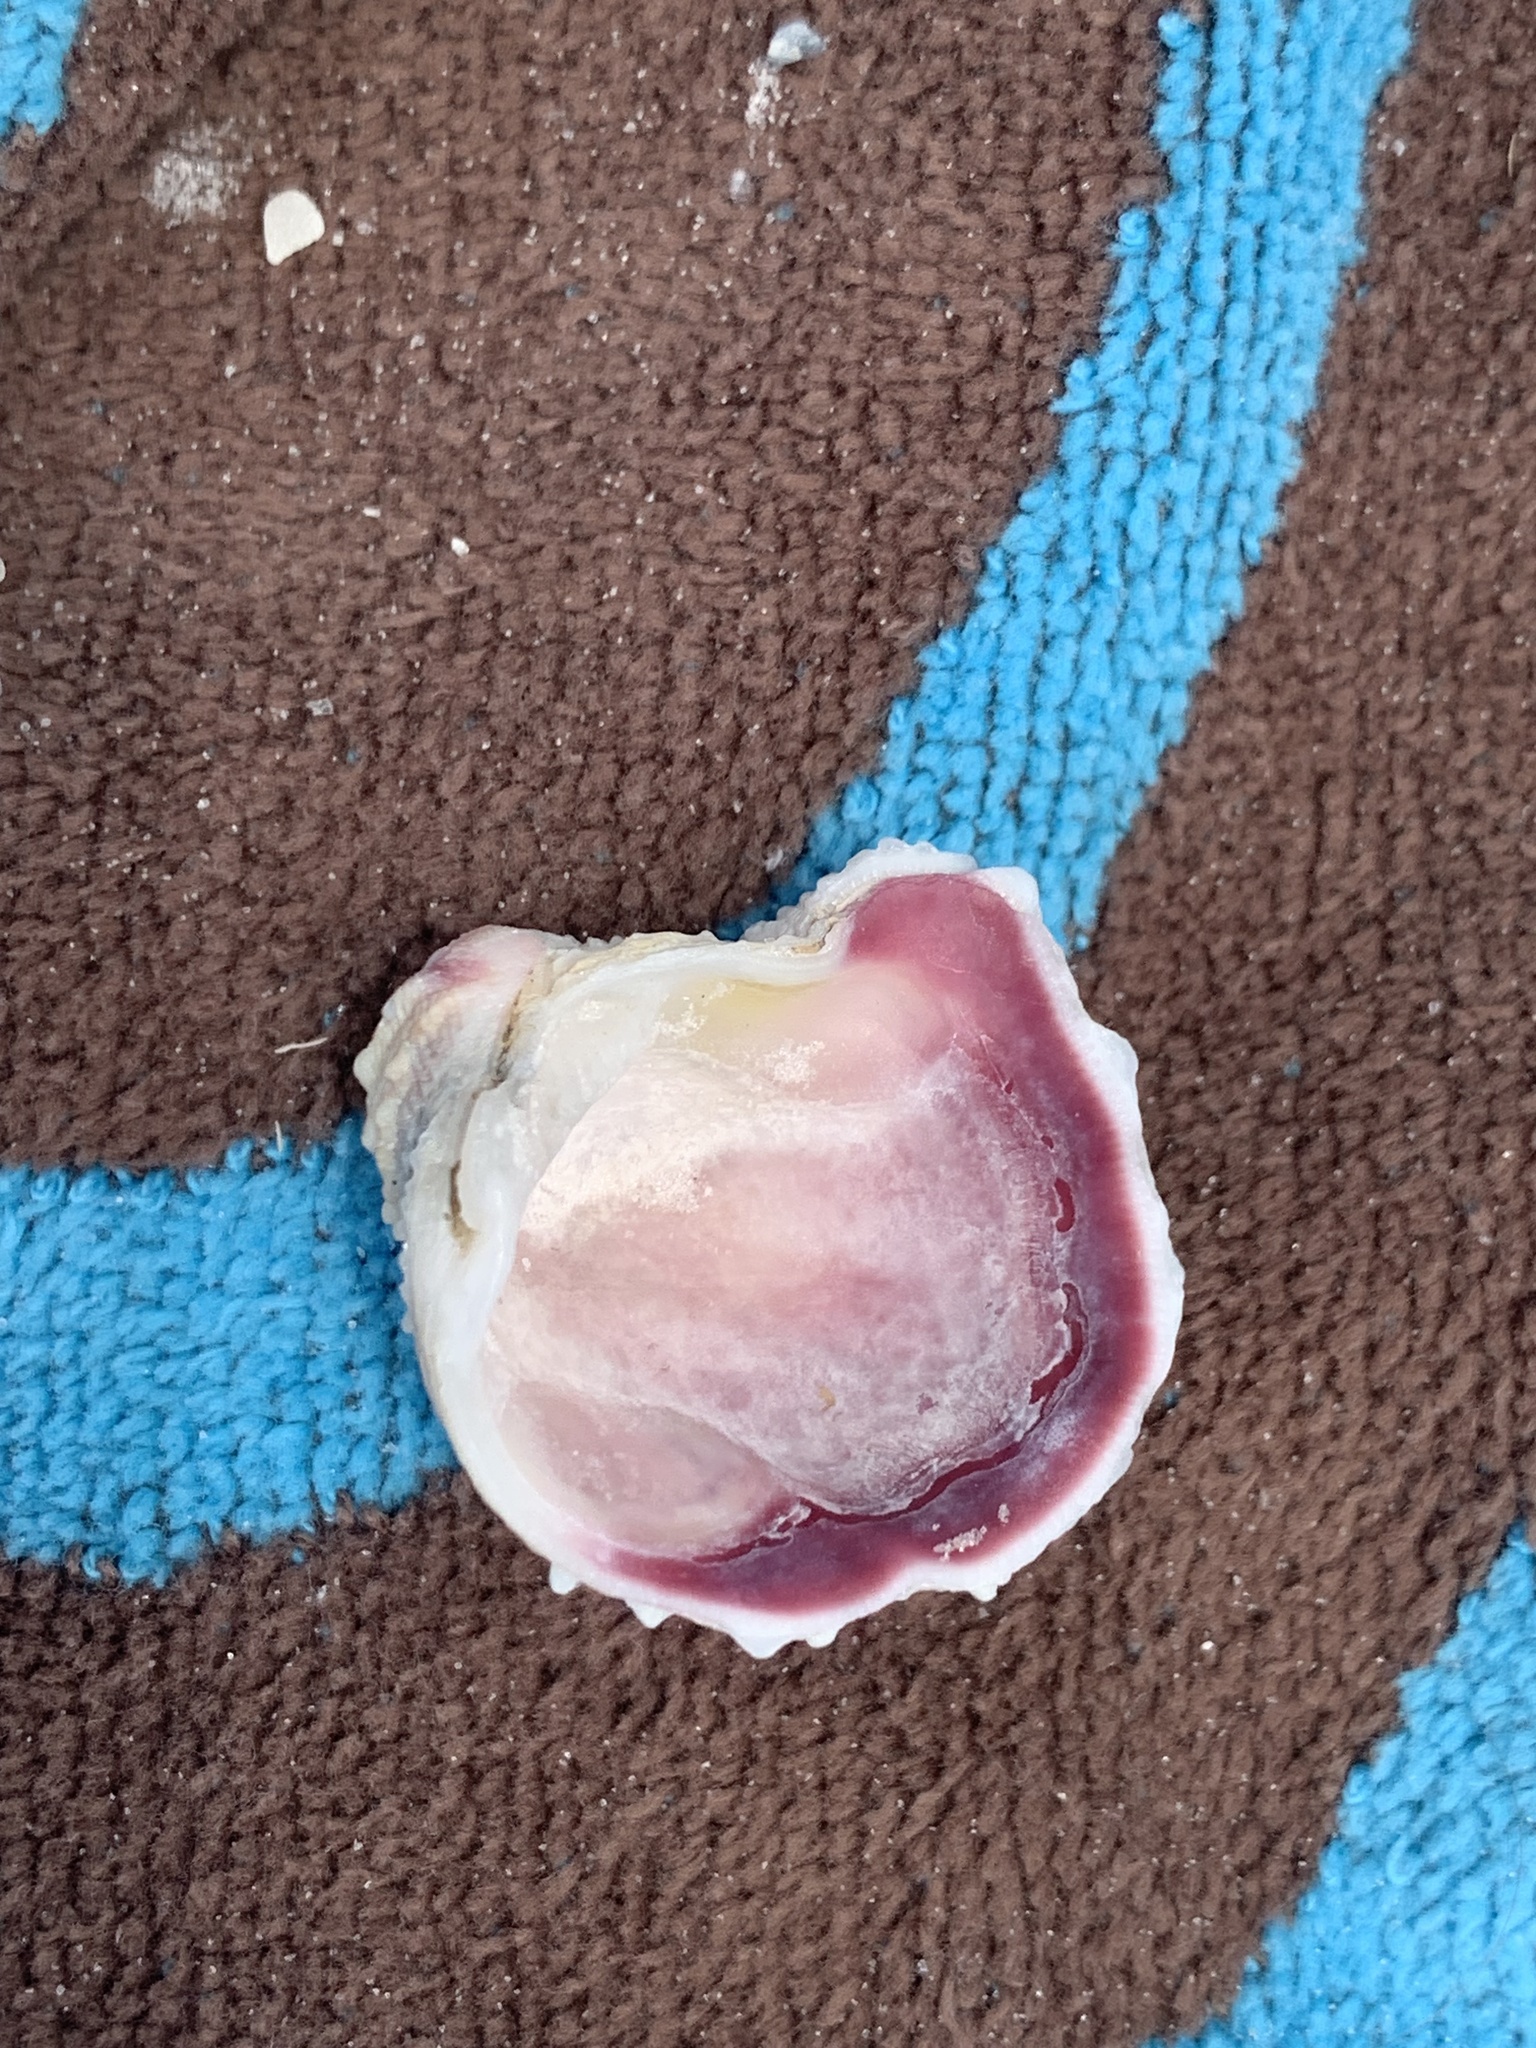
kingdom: Animalia
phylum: Mollusca
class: Bivalvia
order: Venerida
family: Chamidae
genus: Arcinella
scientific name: Arcinella cornuta
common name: Florida spiny jewel box
